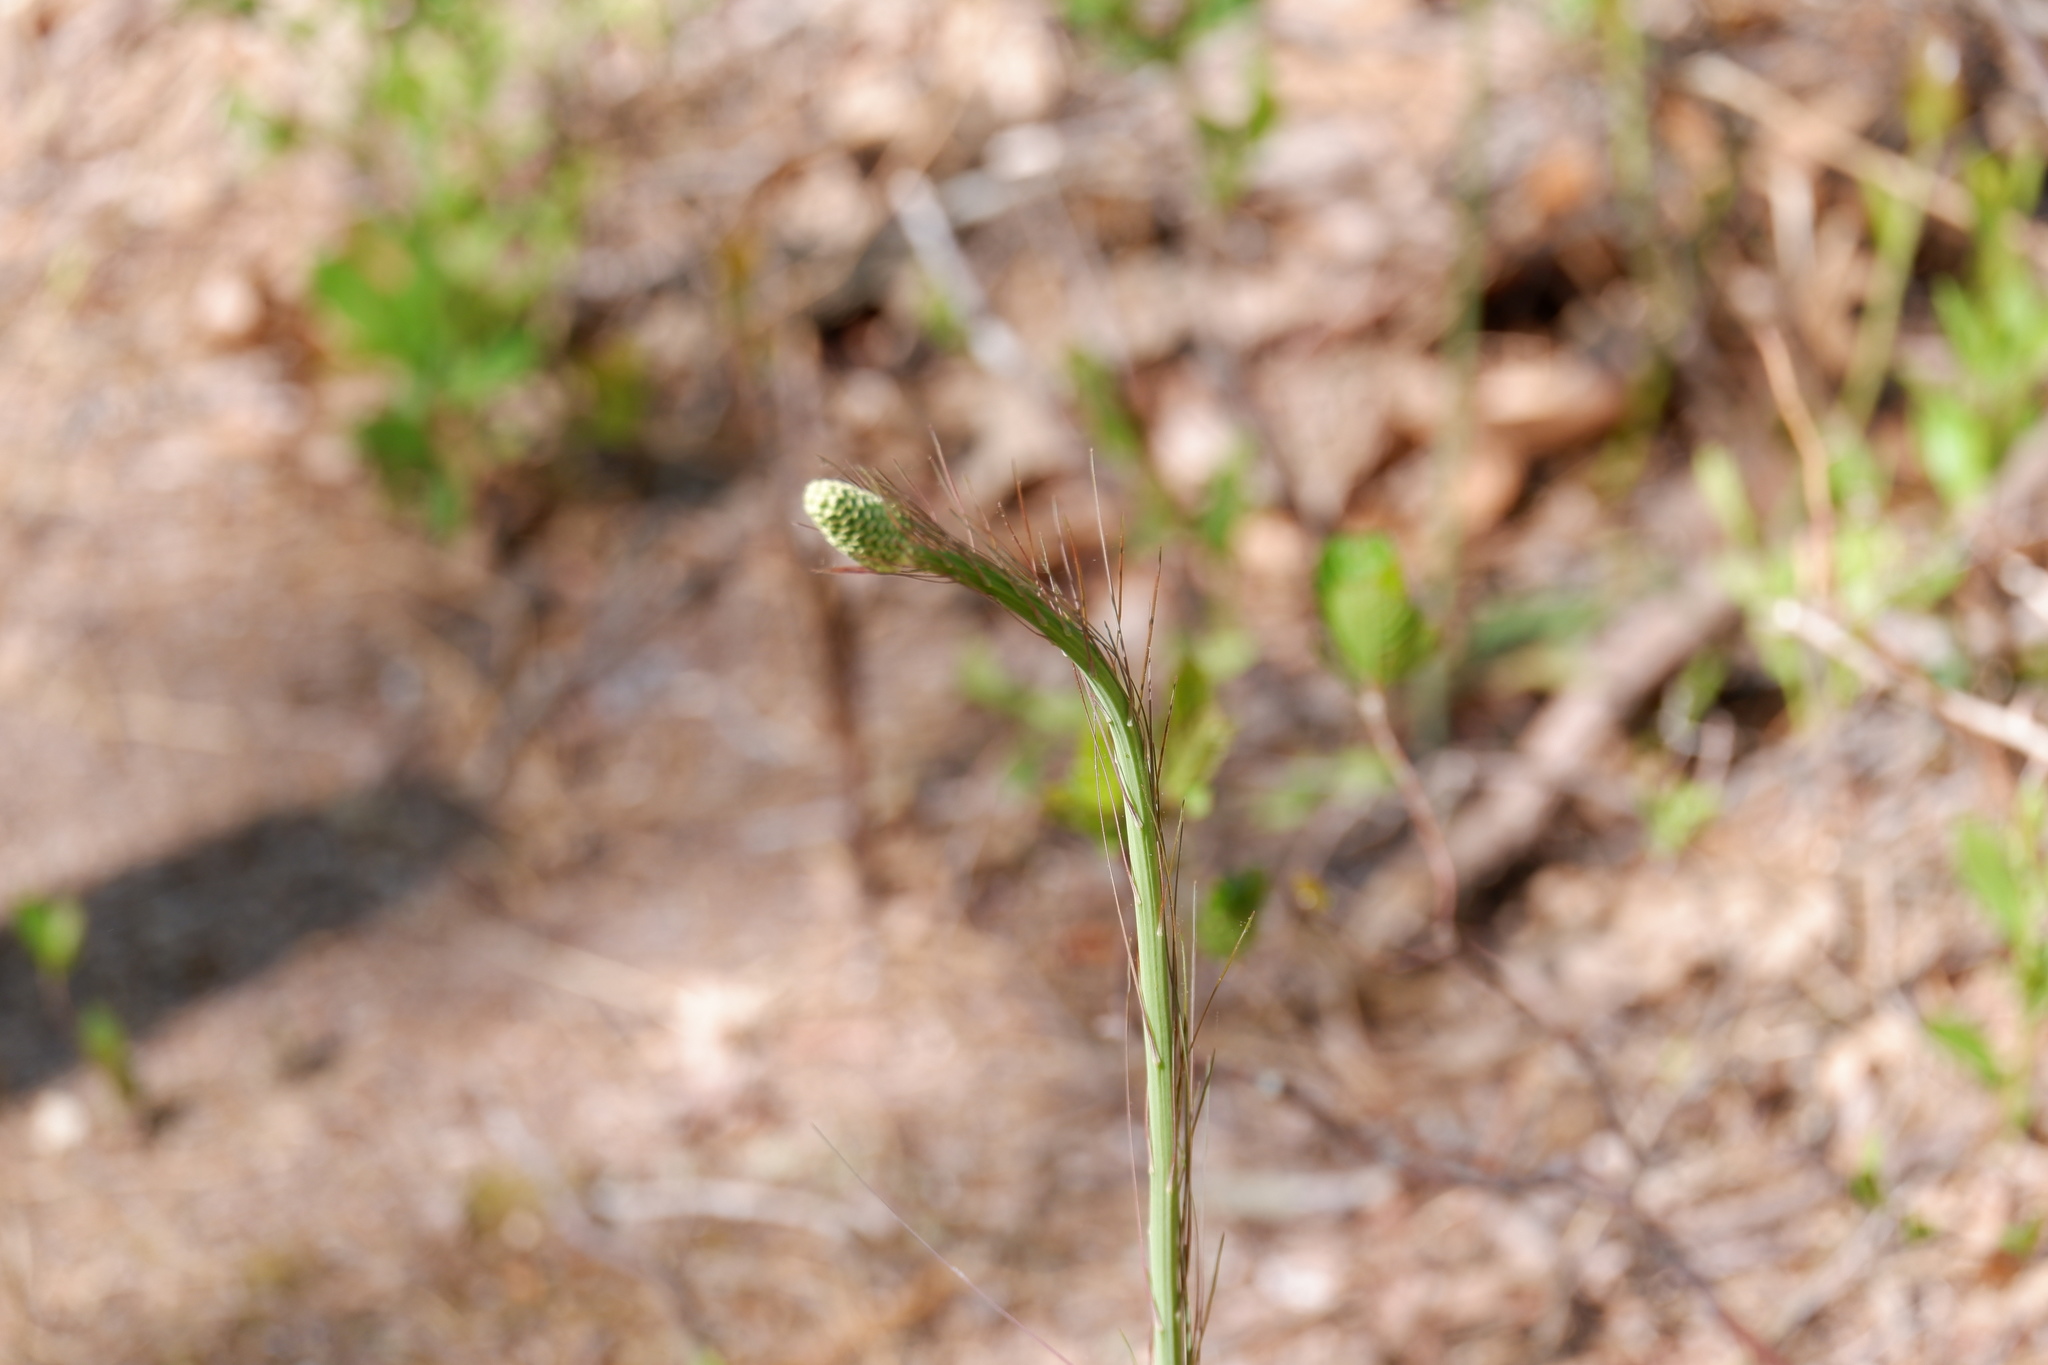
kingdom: Plantae
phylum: Tracheophyta
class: Liliopsida
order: Liliales
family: Melanthiaceae
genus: Xerophyllum
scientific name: Xerophyllum asphodeloides
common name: Mountain-asphodel
